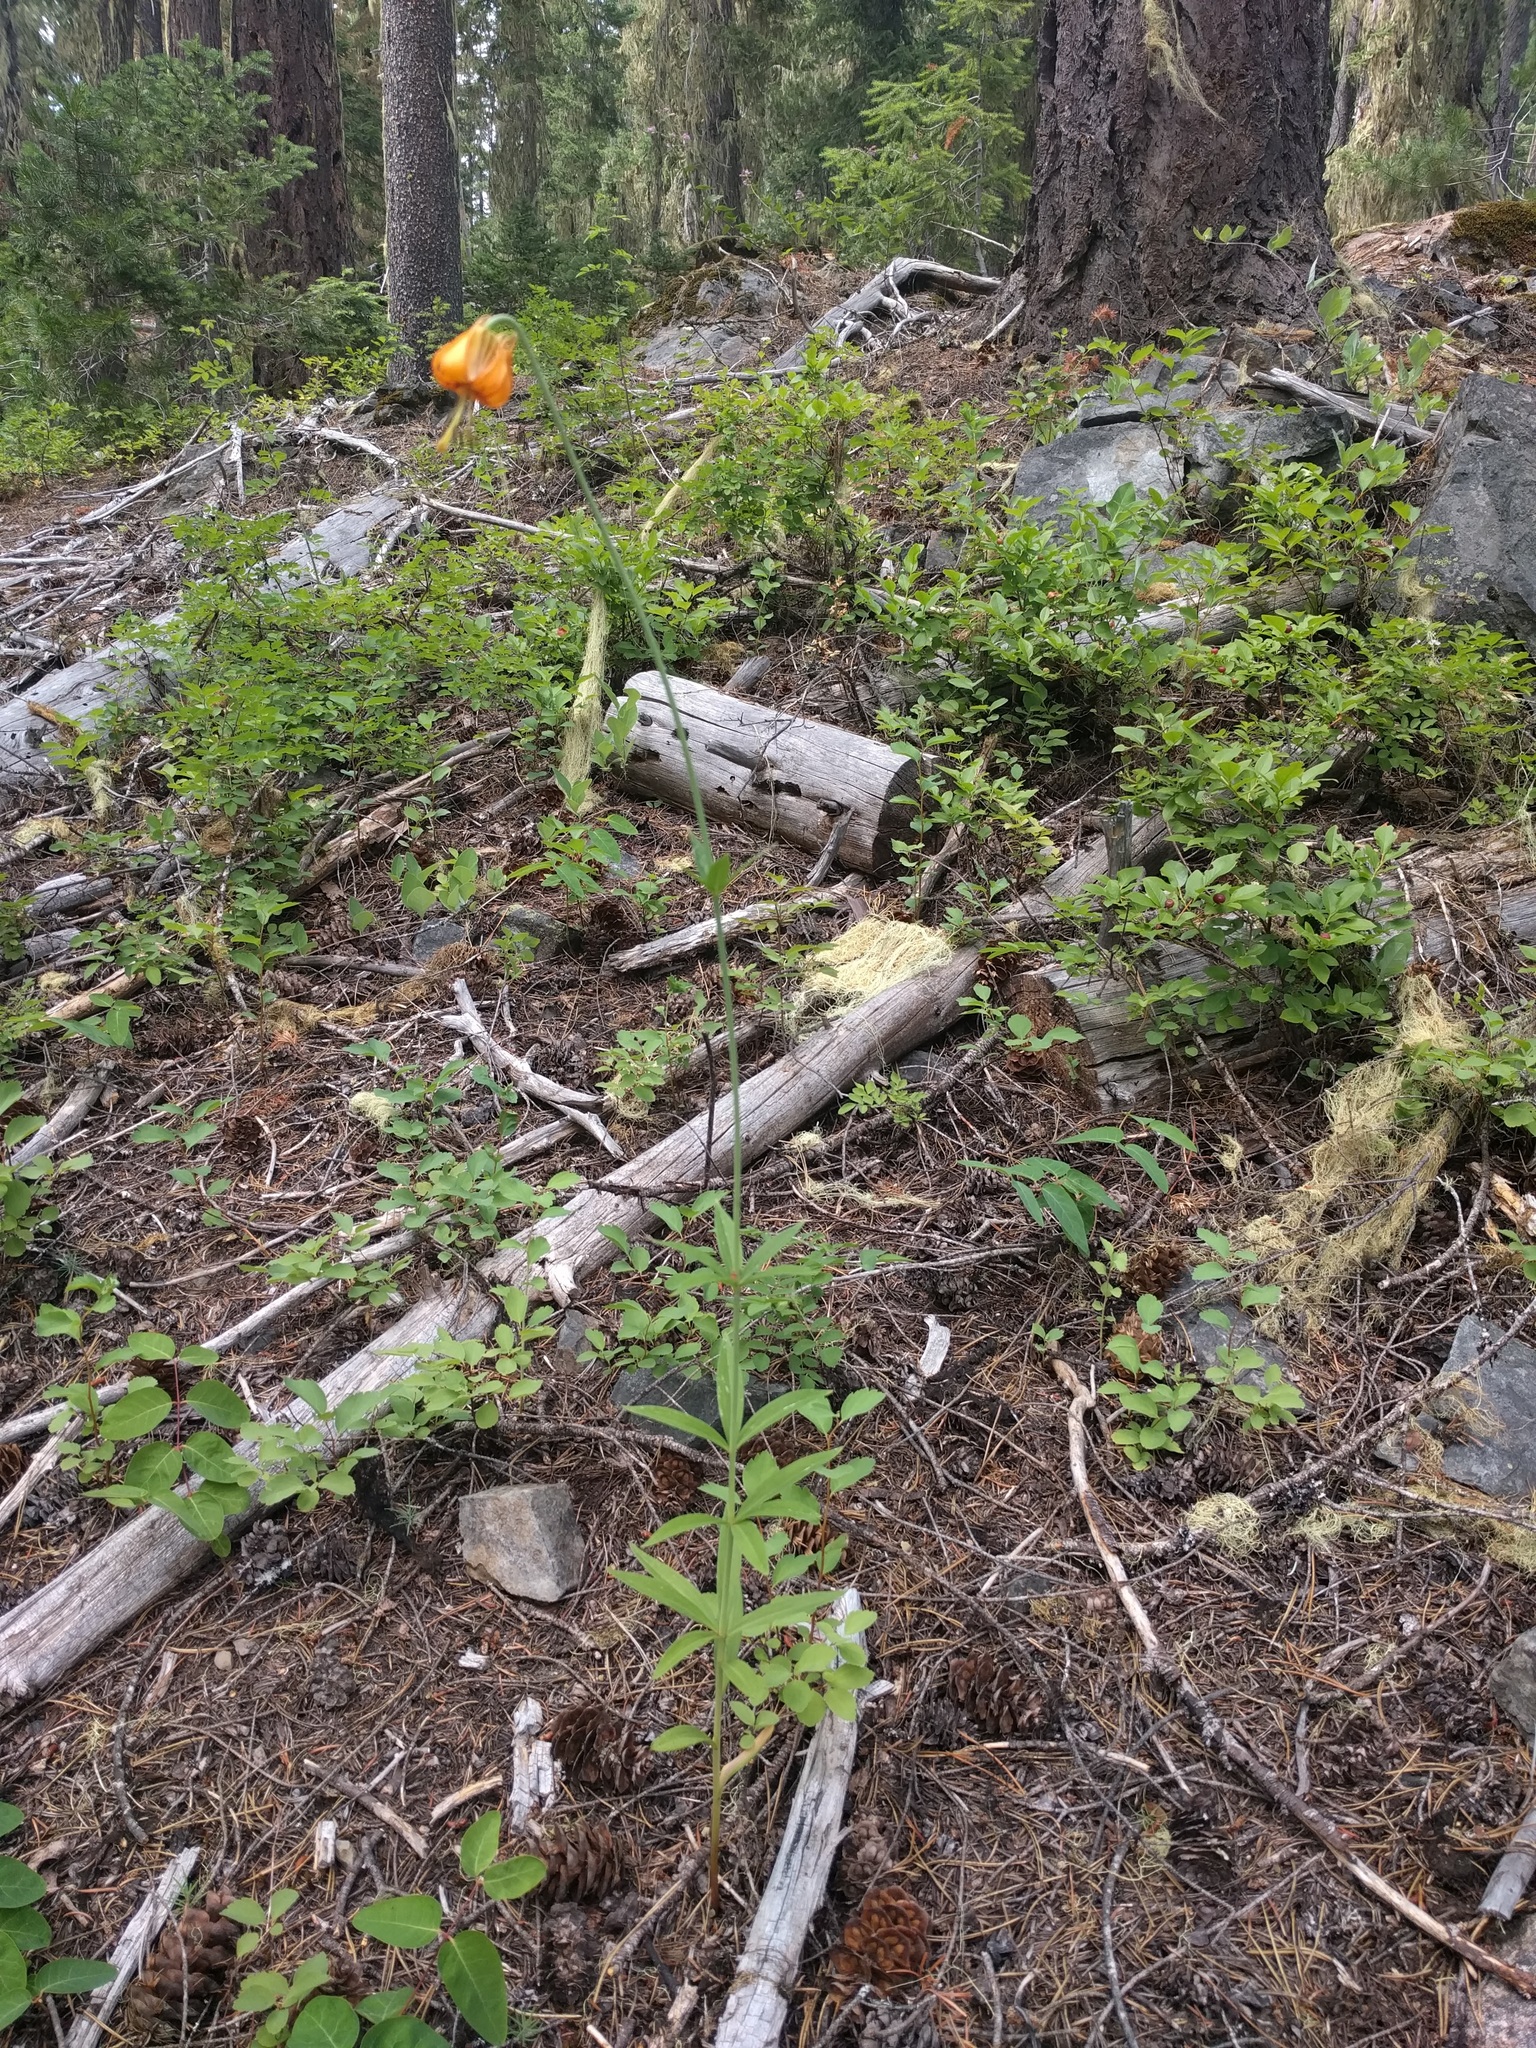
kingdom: Plantae
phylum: Tracheophyta
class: Liliopsida
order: Liliales
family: Liliaceae
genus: Lilium
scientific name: Lilium columbianum
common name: Columbia lily
